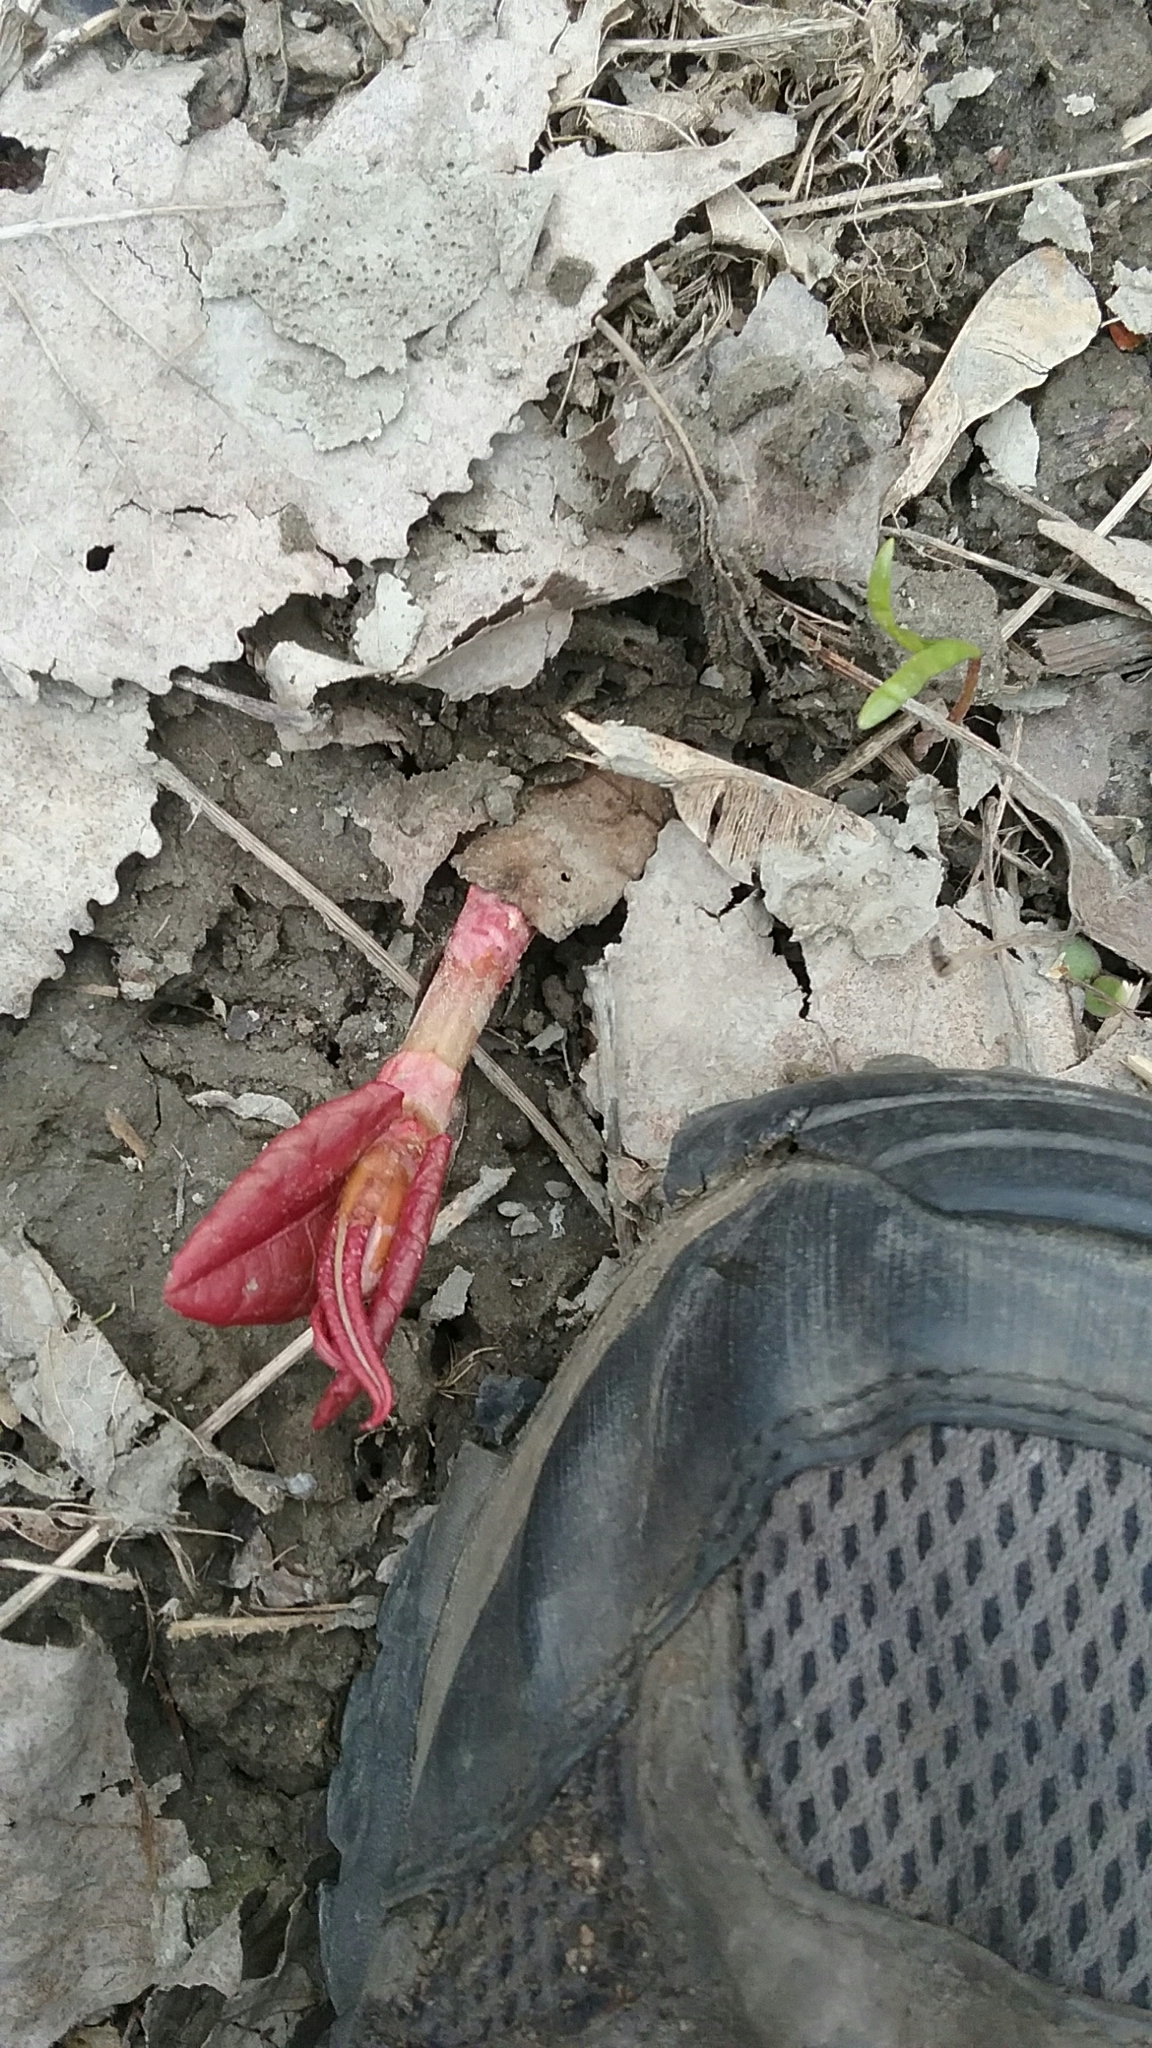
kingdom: Plantae
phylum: Tracheophyta
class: Magnoliopsida
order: Caryophyllales
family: Polygonaceae
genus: Reynoutria
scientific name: Reynoutria japonica
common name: Japanese knotweed
